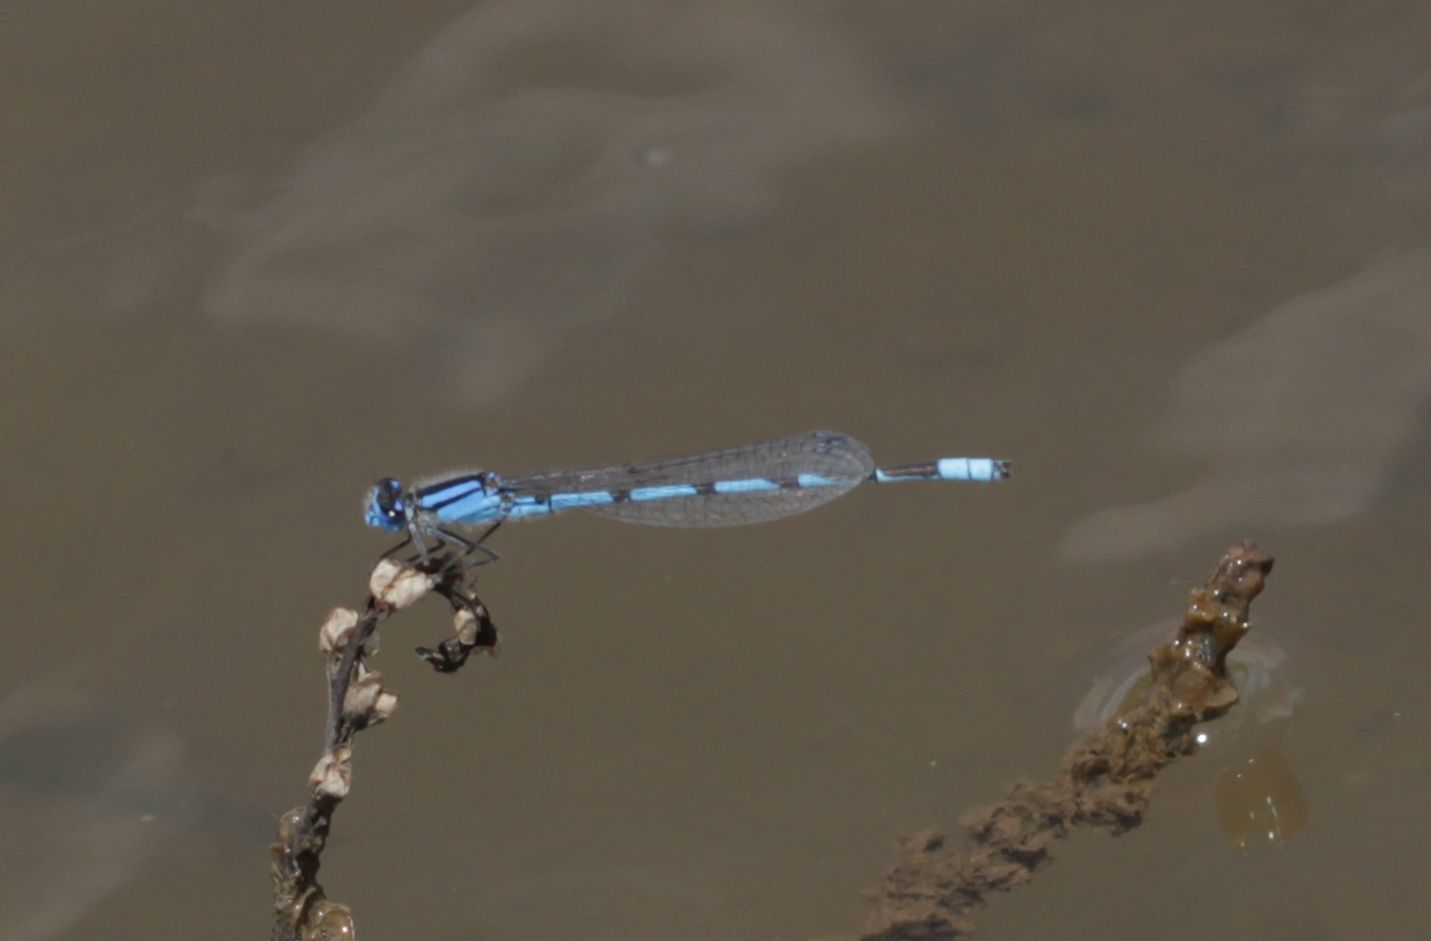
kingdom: Animalia
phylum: Arthropoda
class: Insecta
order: Odonata
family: Coenagrionidae
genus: Enallagma
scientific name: Enallagma civile
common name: Damselfly
